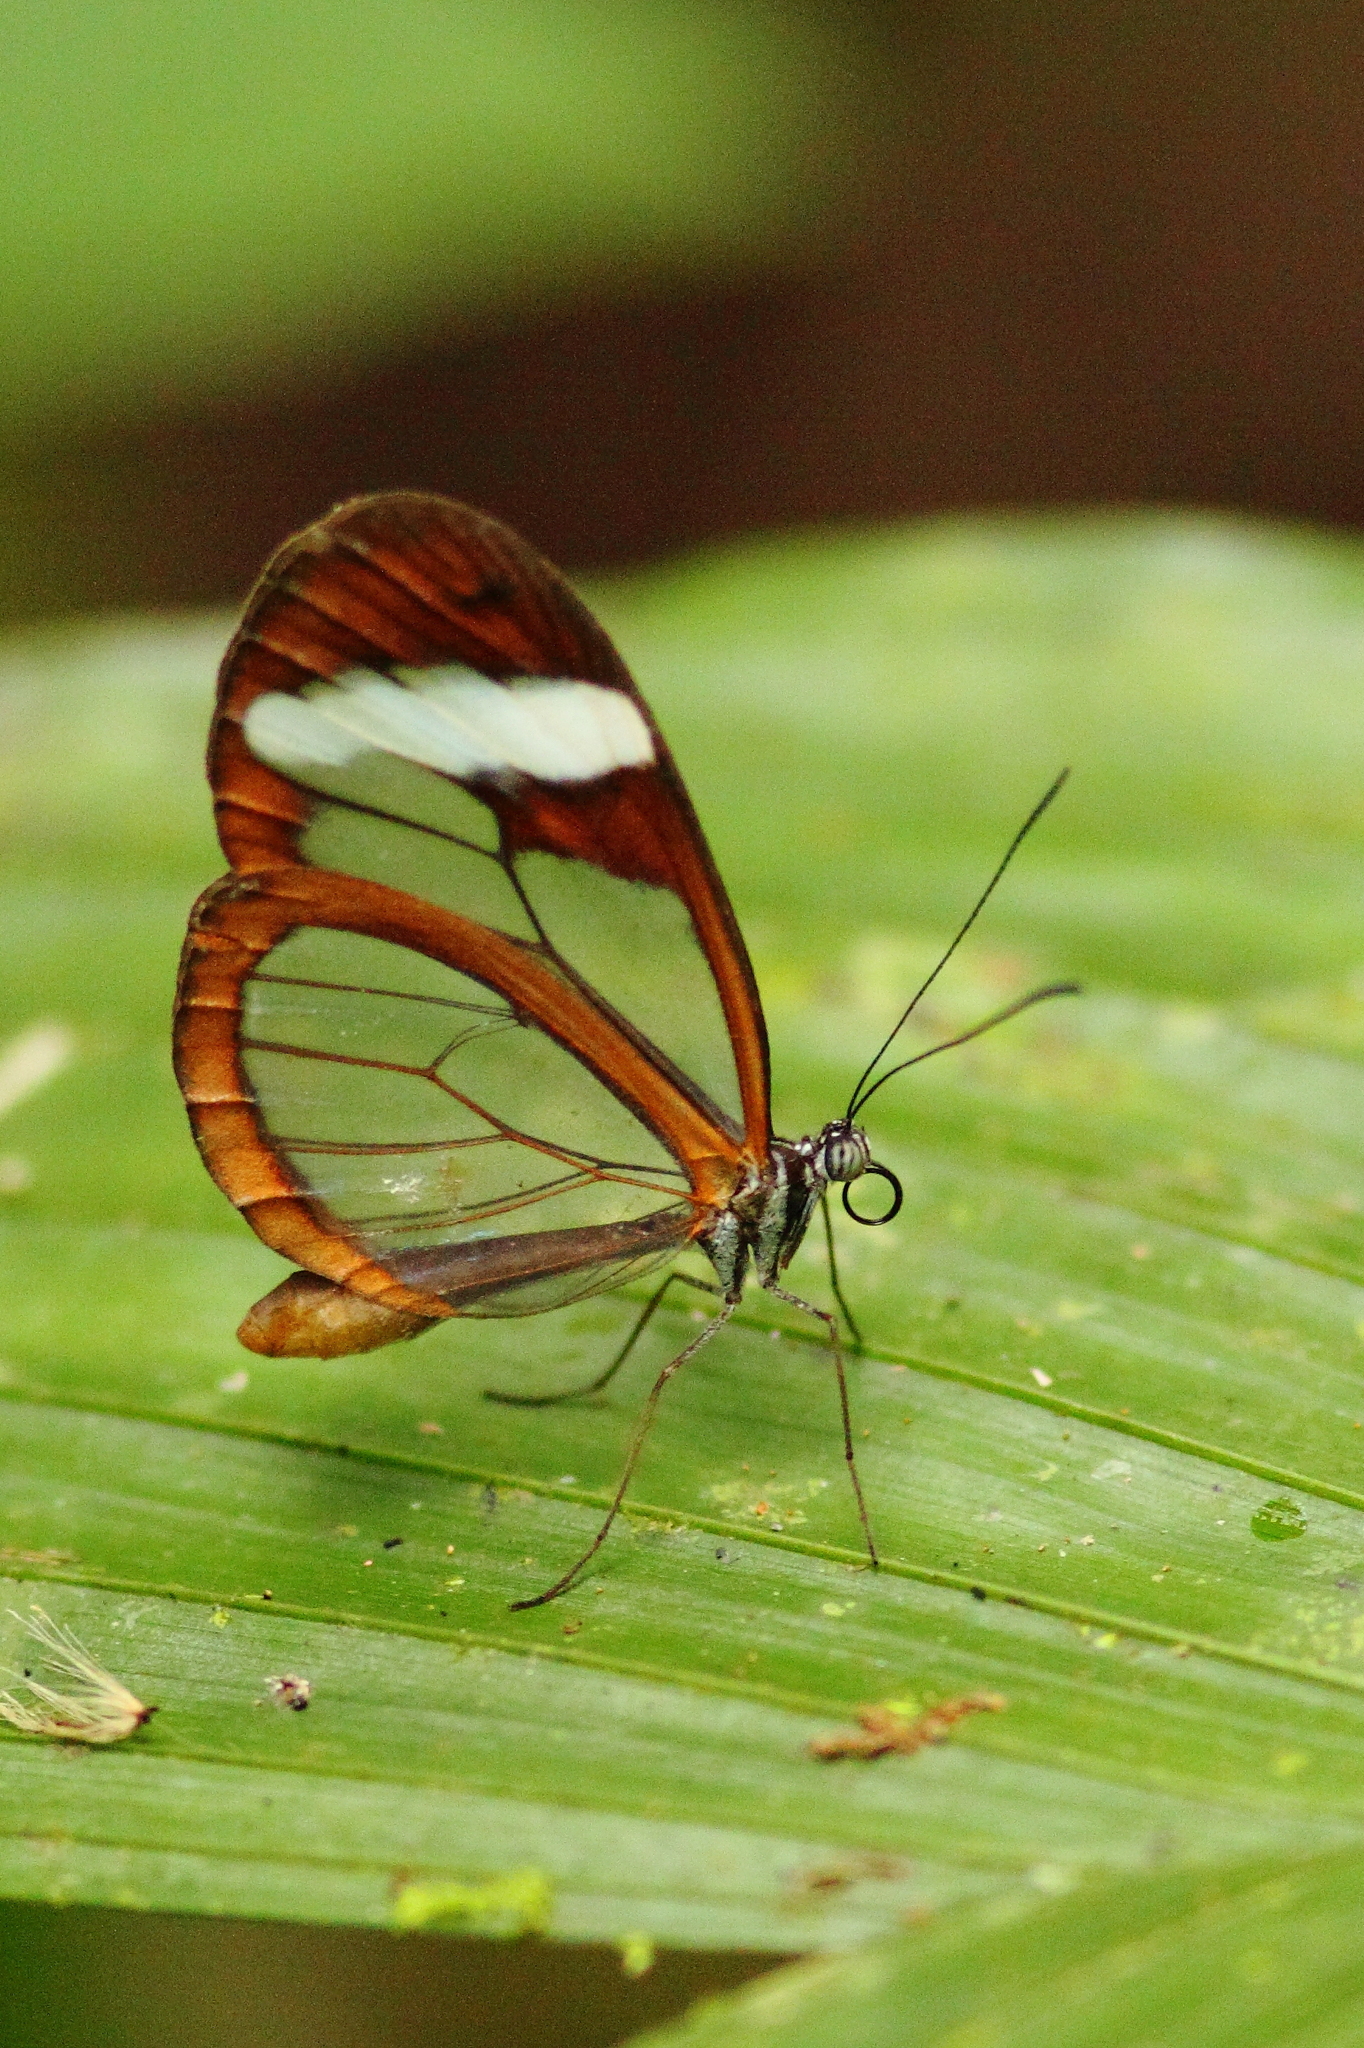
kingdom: Animalia
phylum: Arthropoda
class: Insecta
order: Lepidoptera
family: Nymphalidae
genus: Oleria
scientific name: Oleria paula
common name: Paula's clearwing
